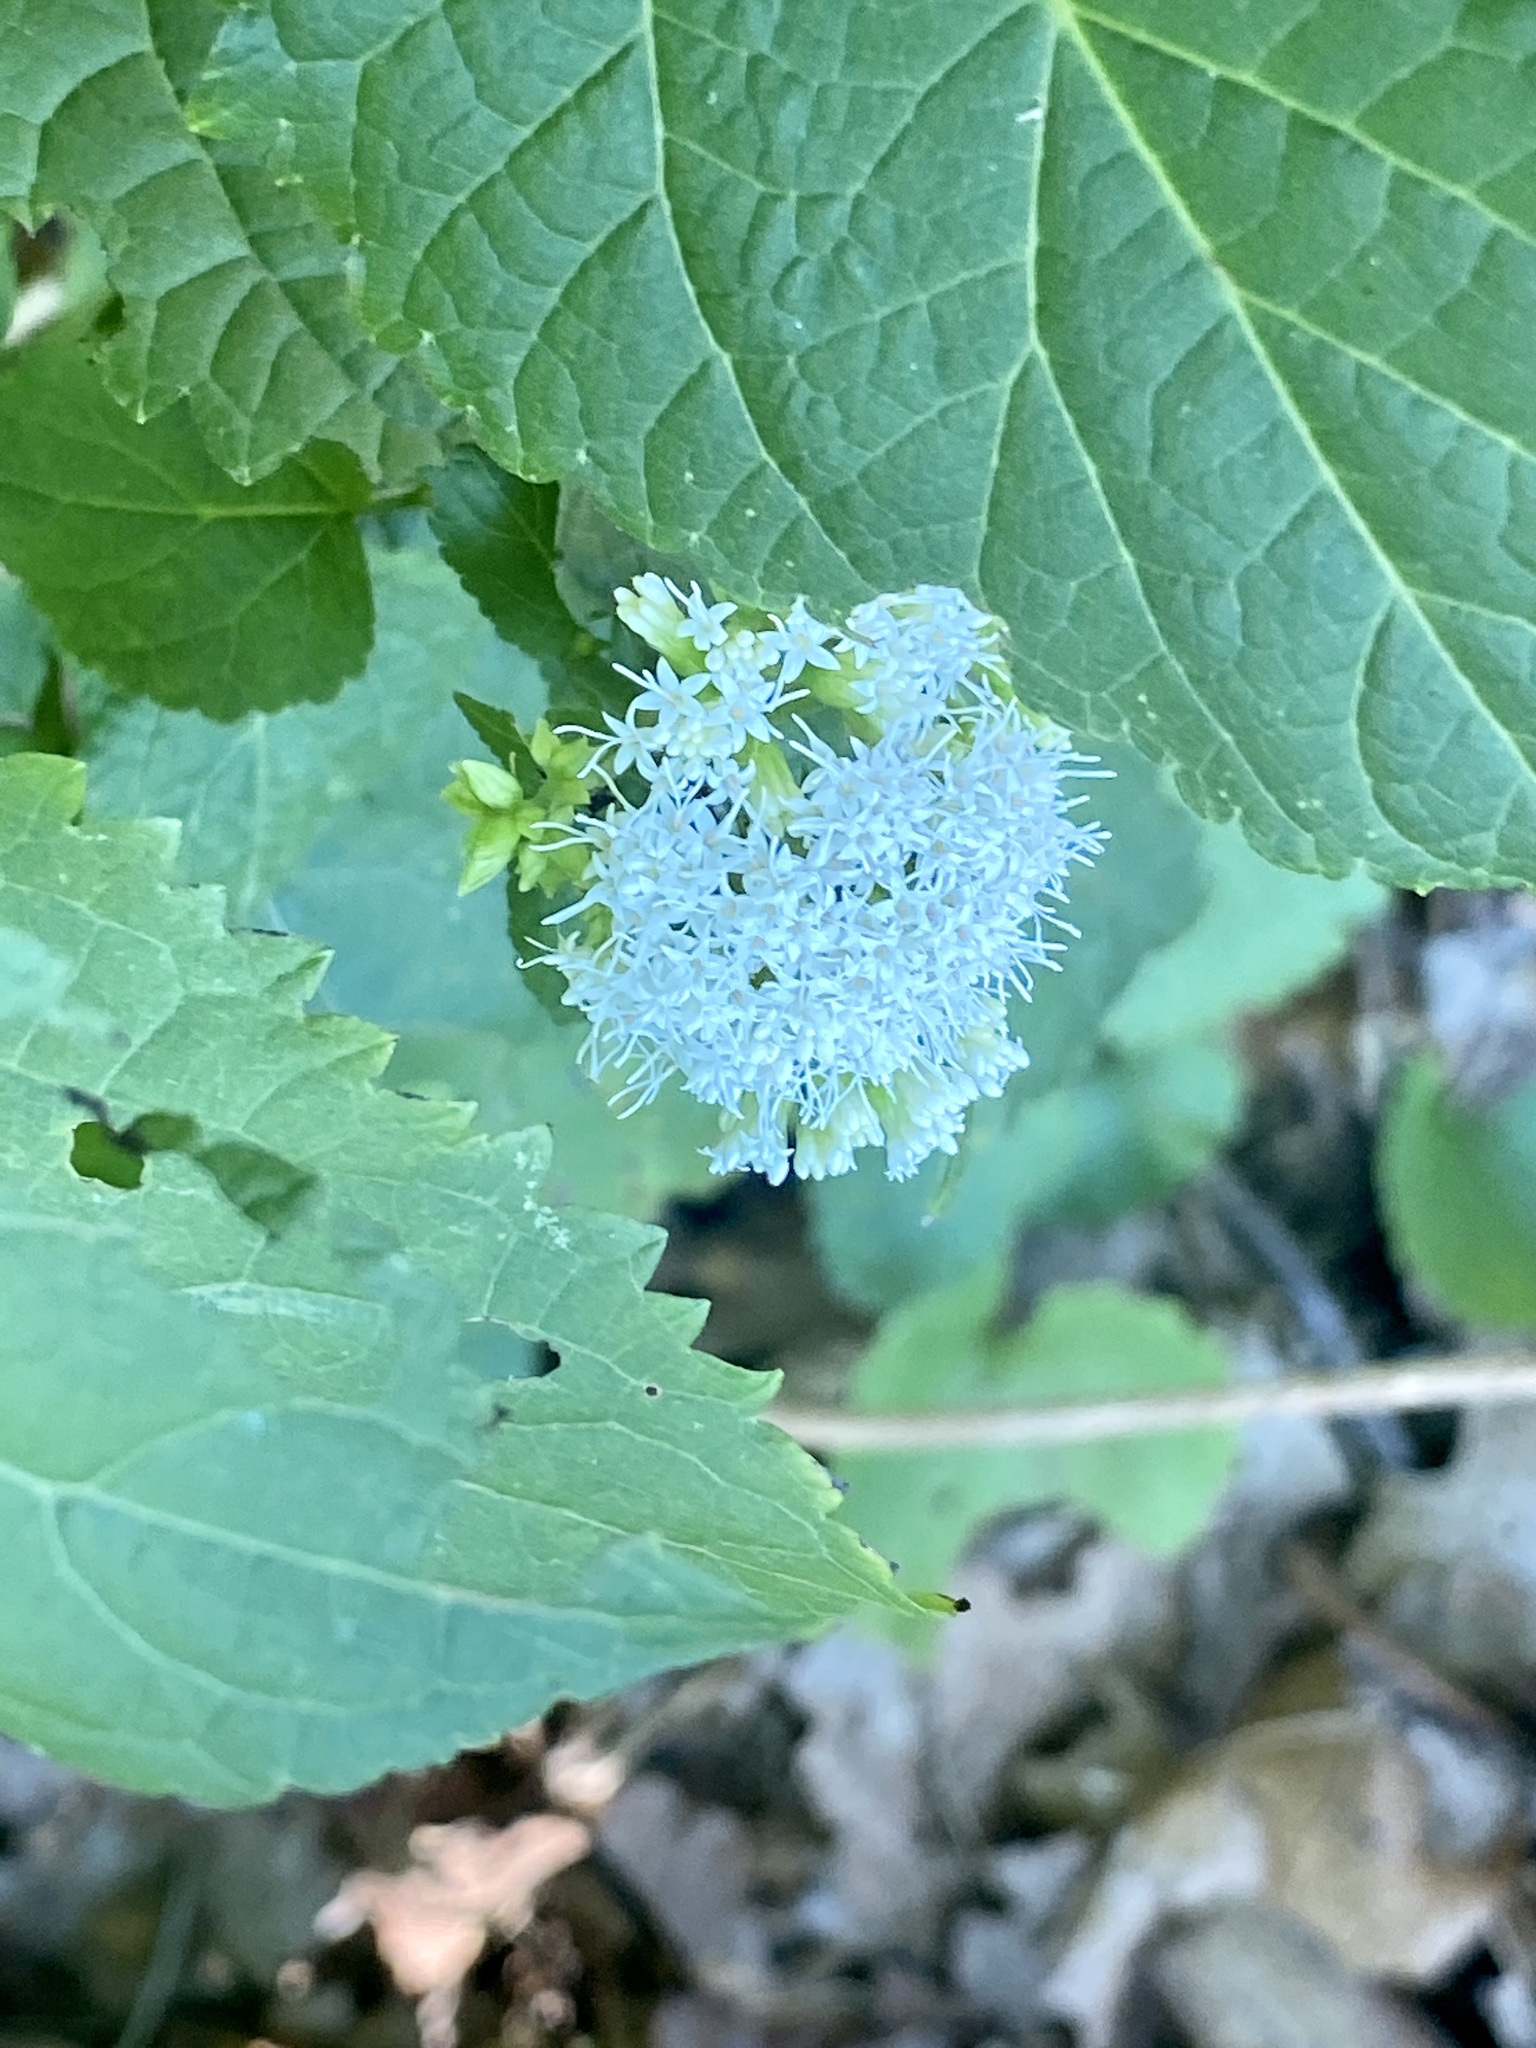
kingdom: Plantae
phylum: Tracheophyta
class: Magnoliopsida
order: Asterales
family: Asteraceae
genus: Ageratina
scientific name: Ageratina altissima
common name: White snakeroot
